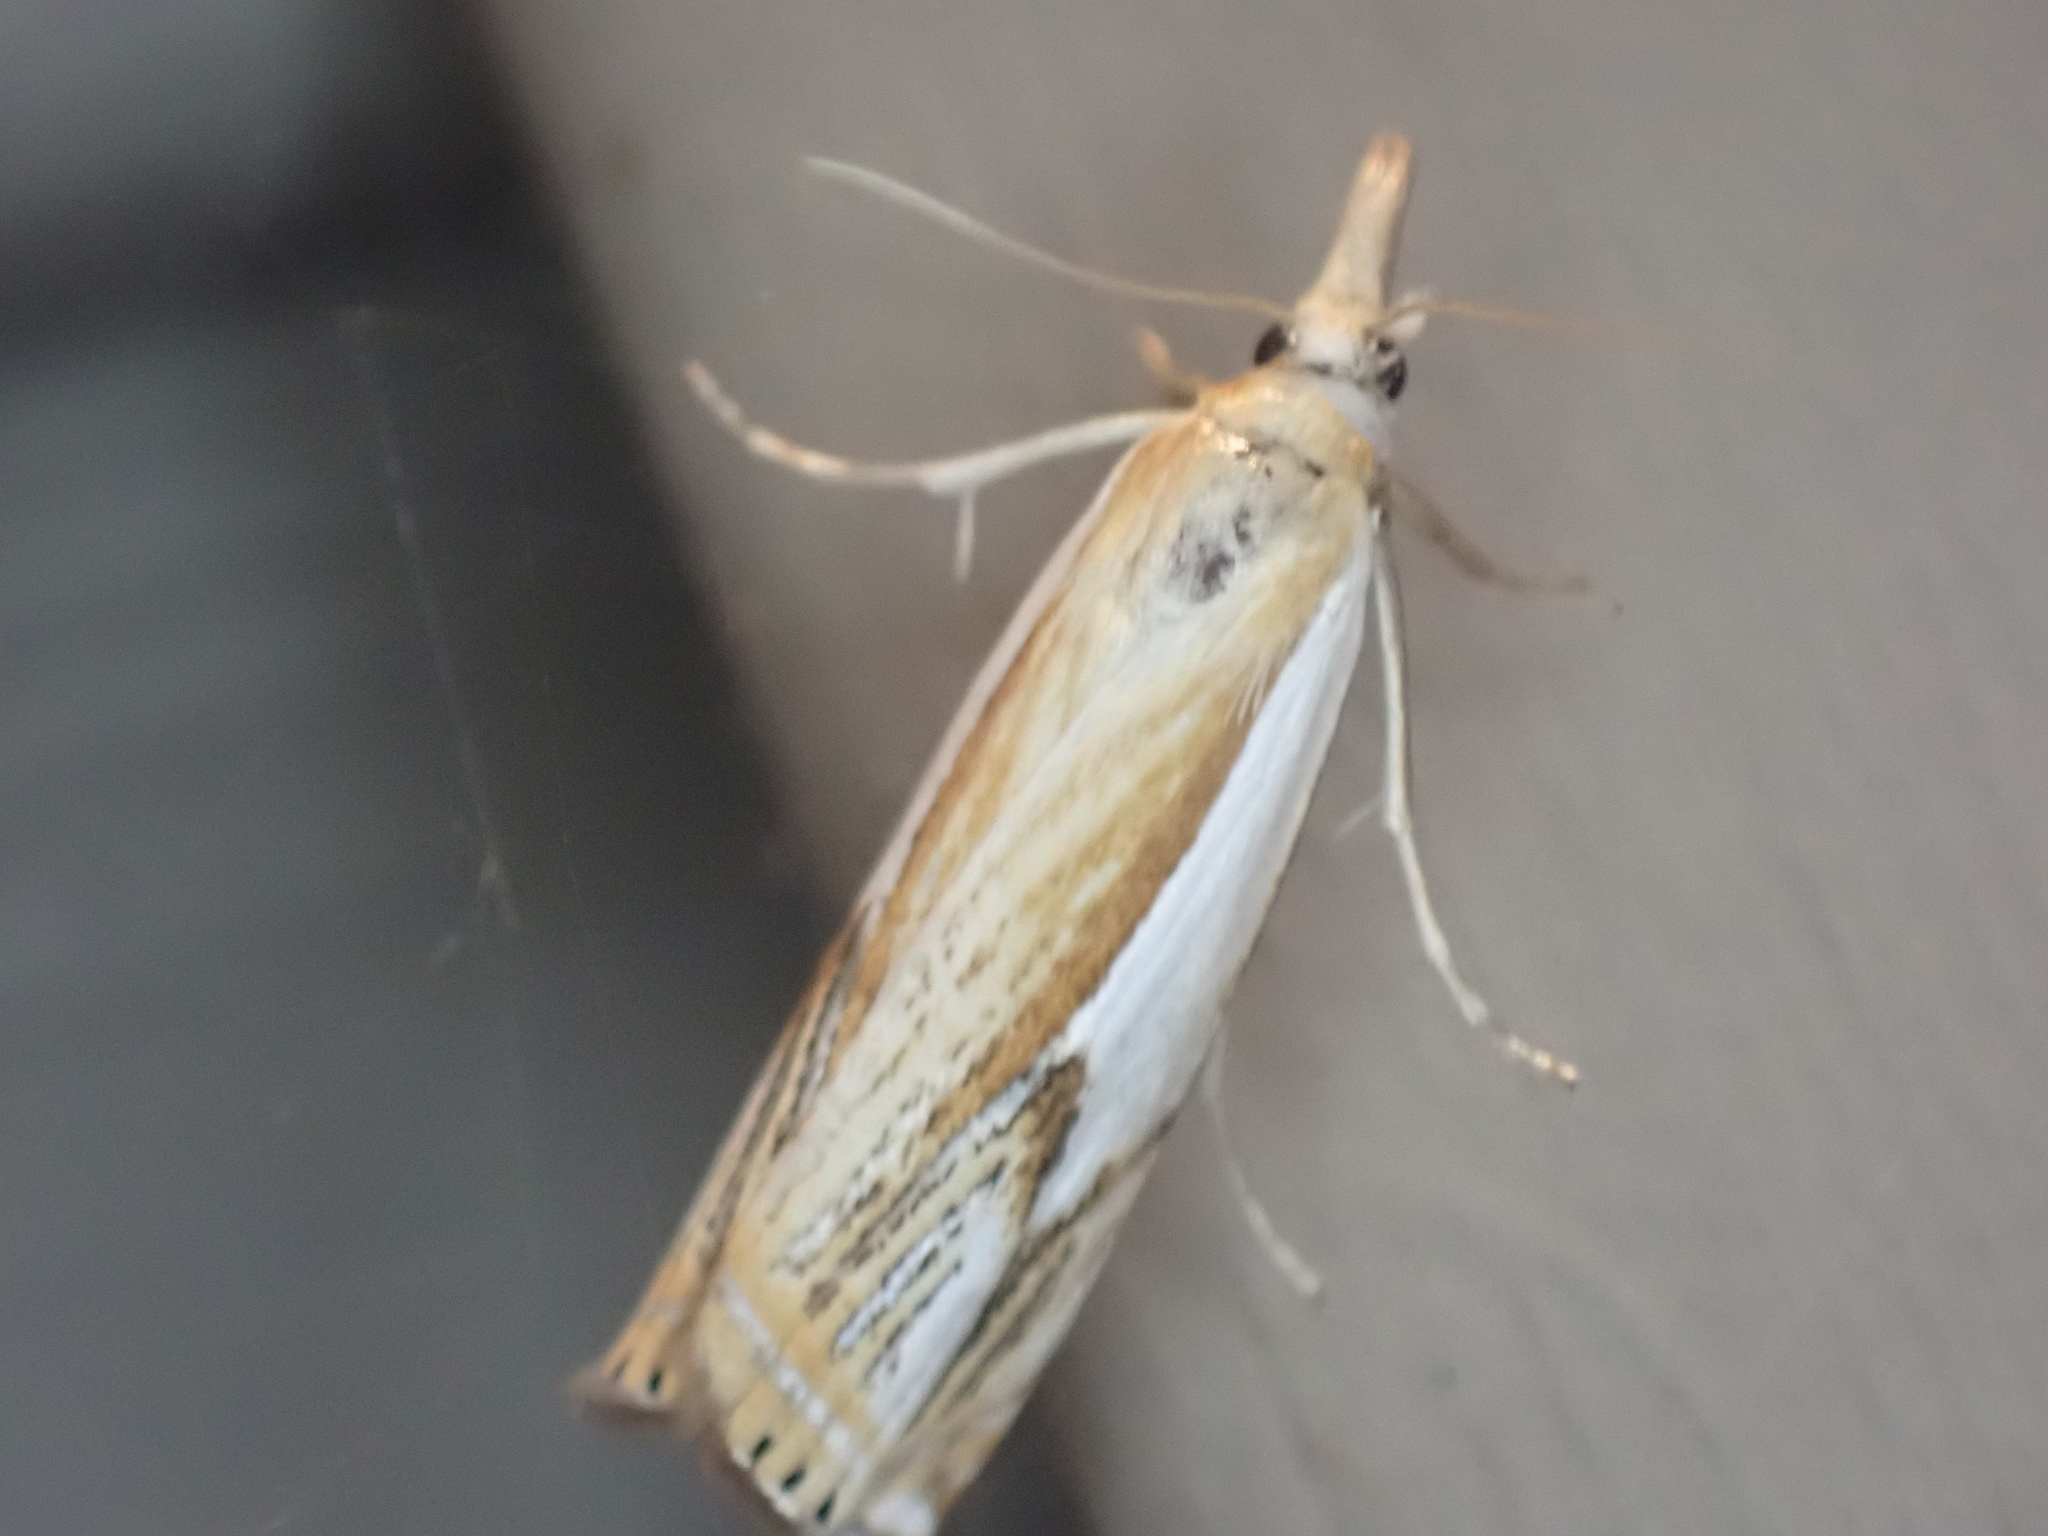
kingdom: Animalia
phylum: Arthropoda
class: Insecta
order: Lepidoptera
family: Crambidae
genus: Crambus
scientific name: Crambus agitatellus
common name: Double-banded grass-veneer
